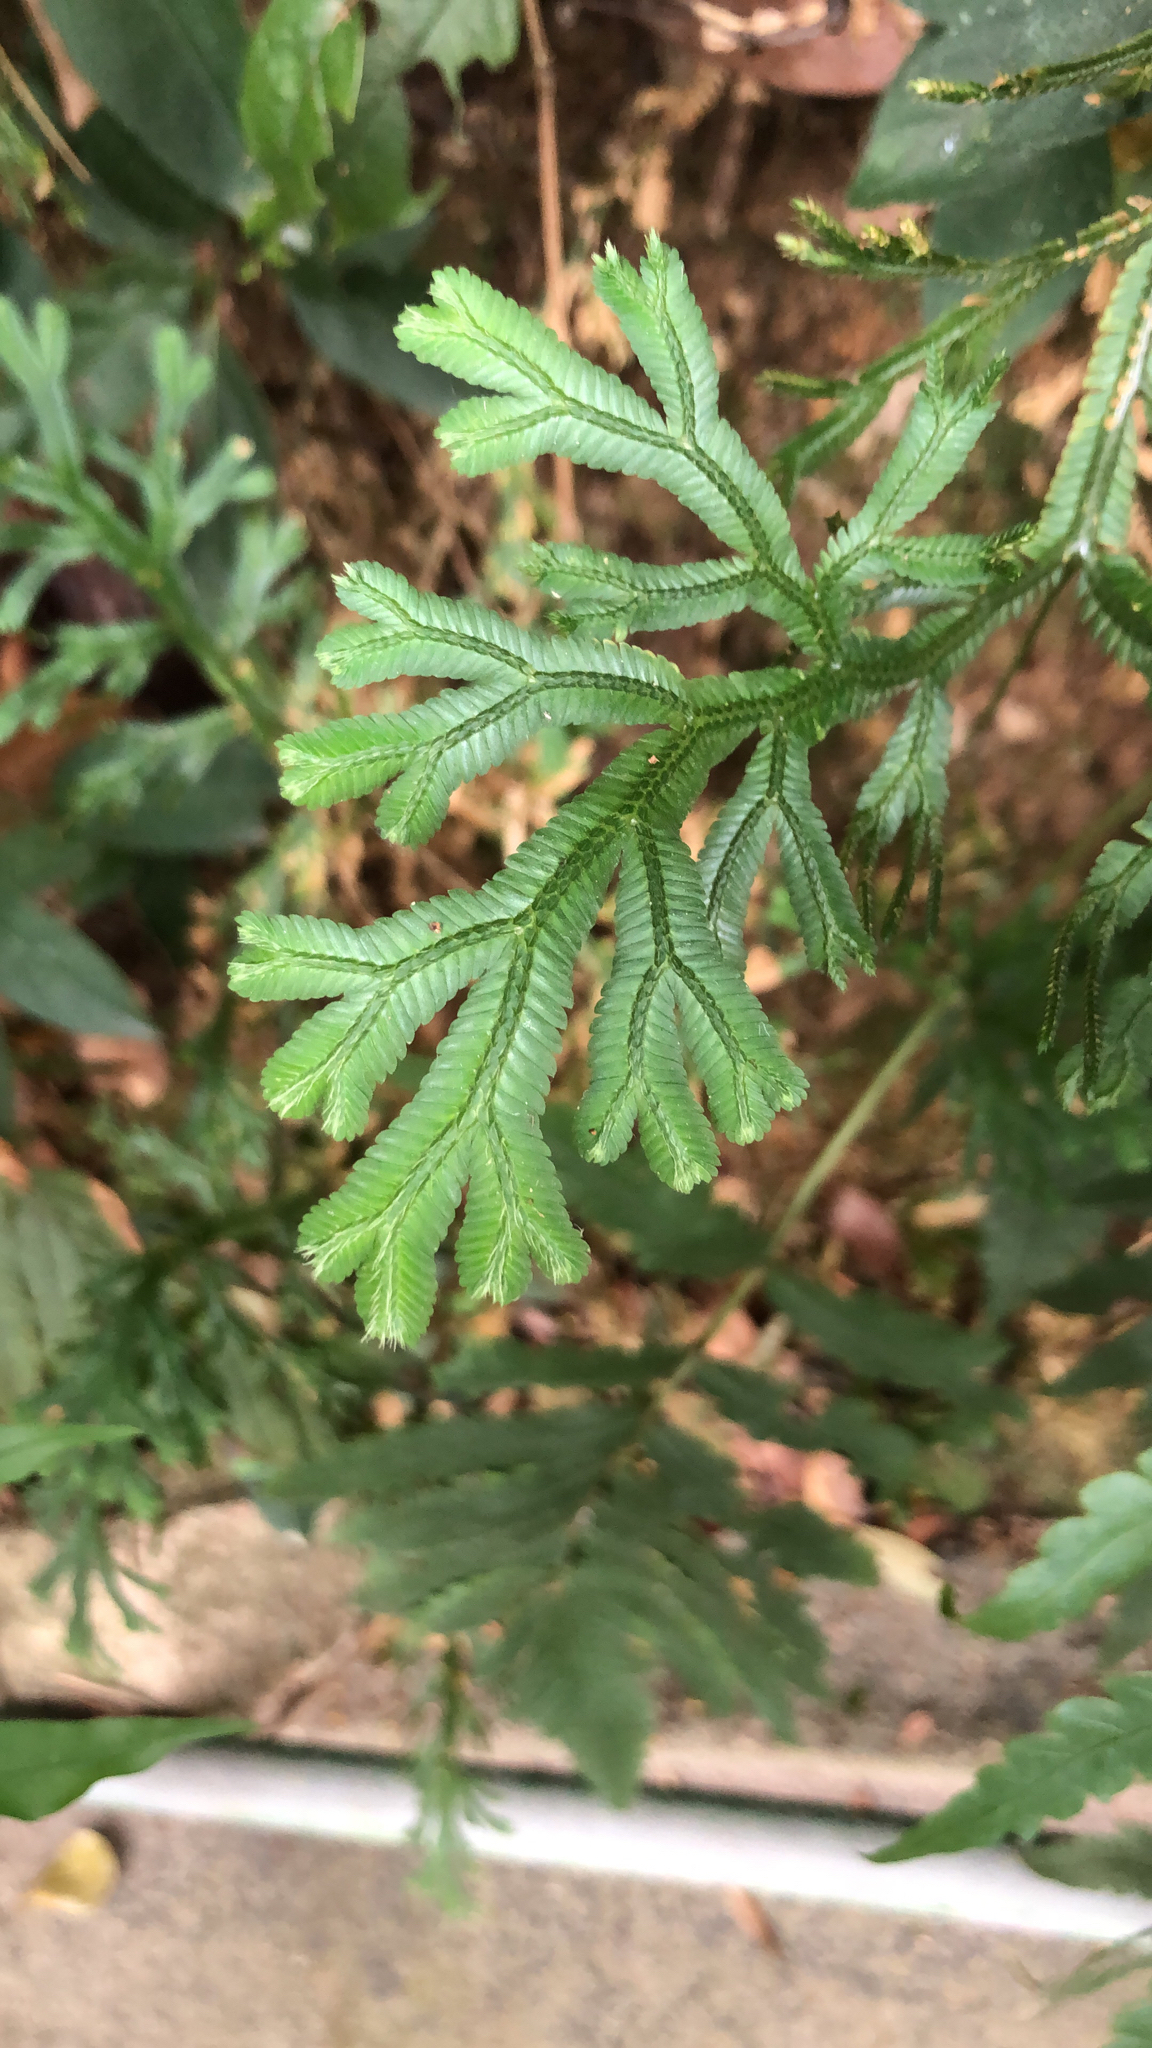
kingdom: Plantae
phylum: Tracheophyta
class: Lycopodiopsida
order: Selaginellales
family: Selaginellaceae
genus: Selaginella
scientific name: Selaginella doederleinii
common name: Greater selaginella
